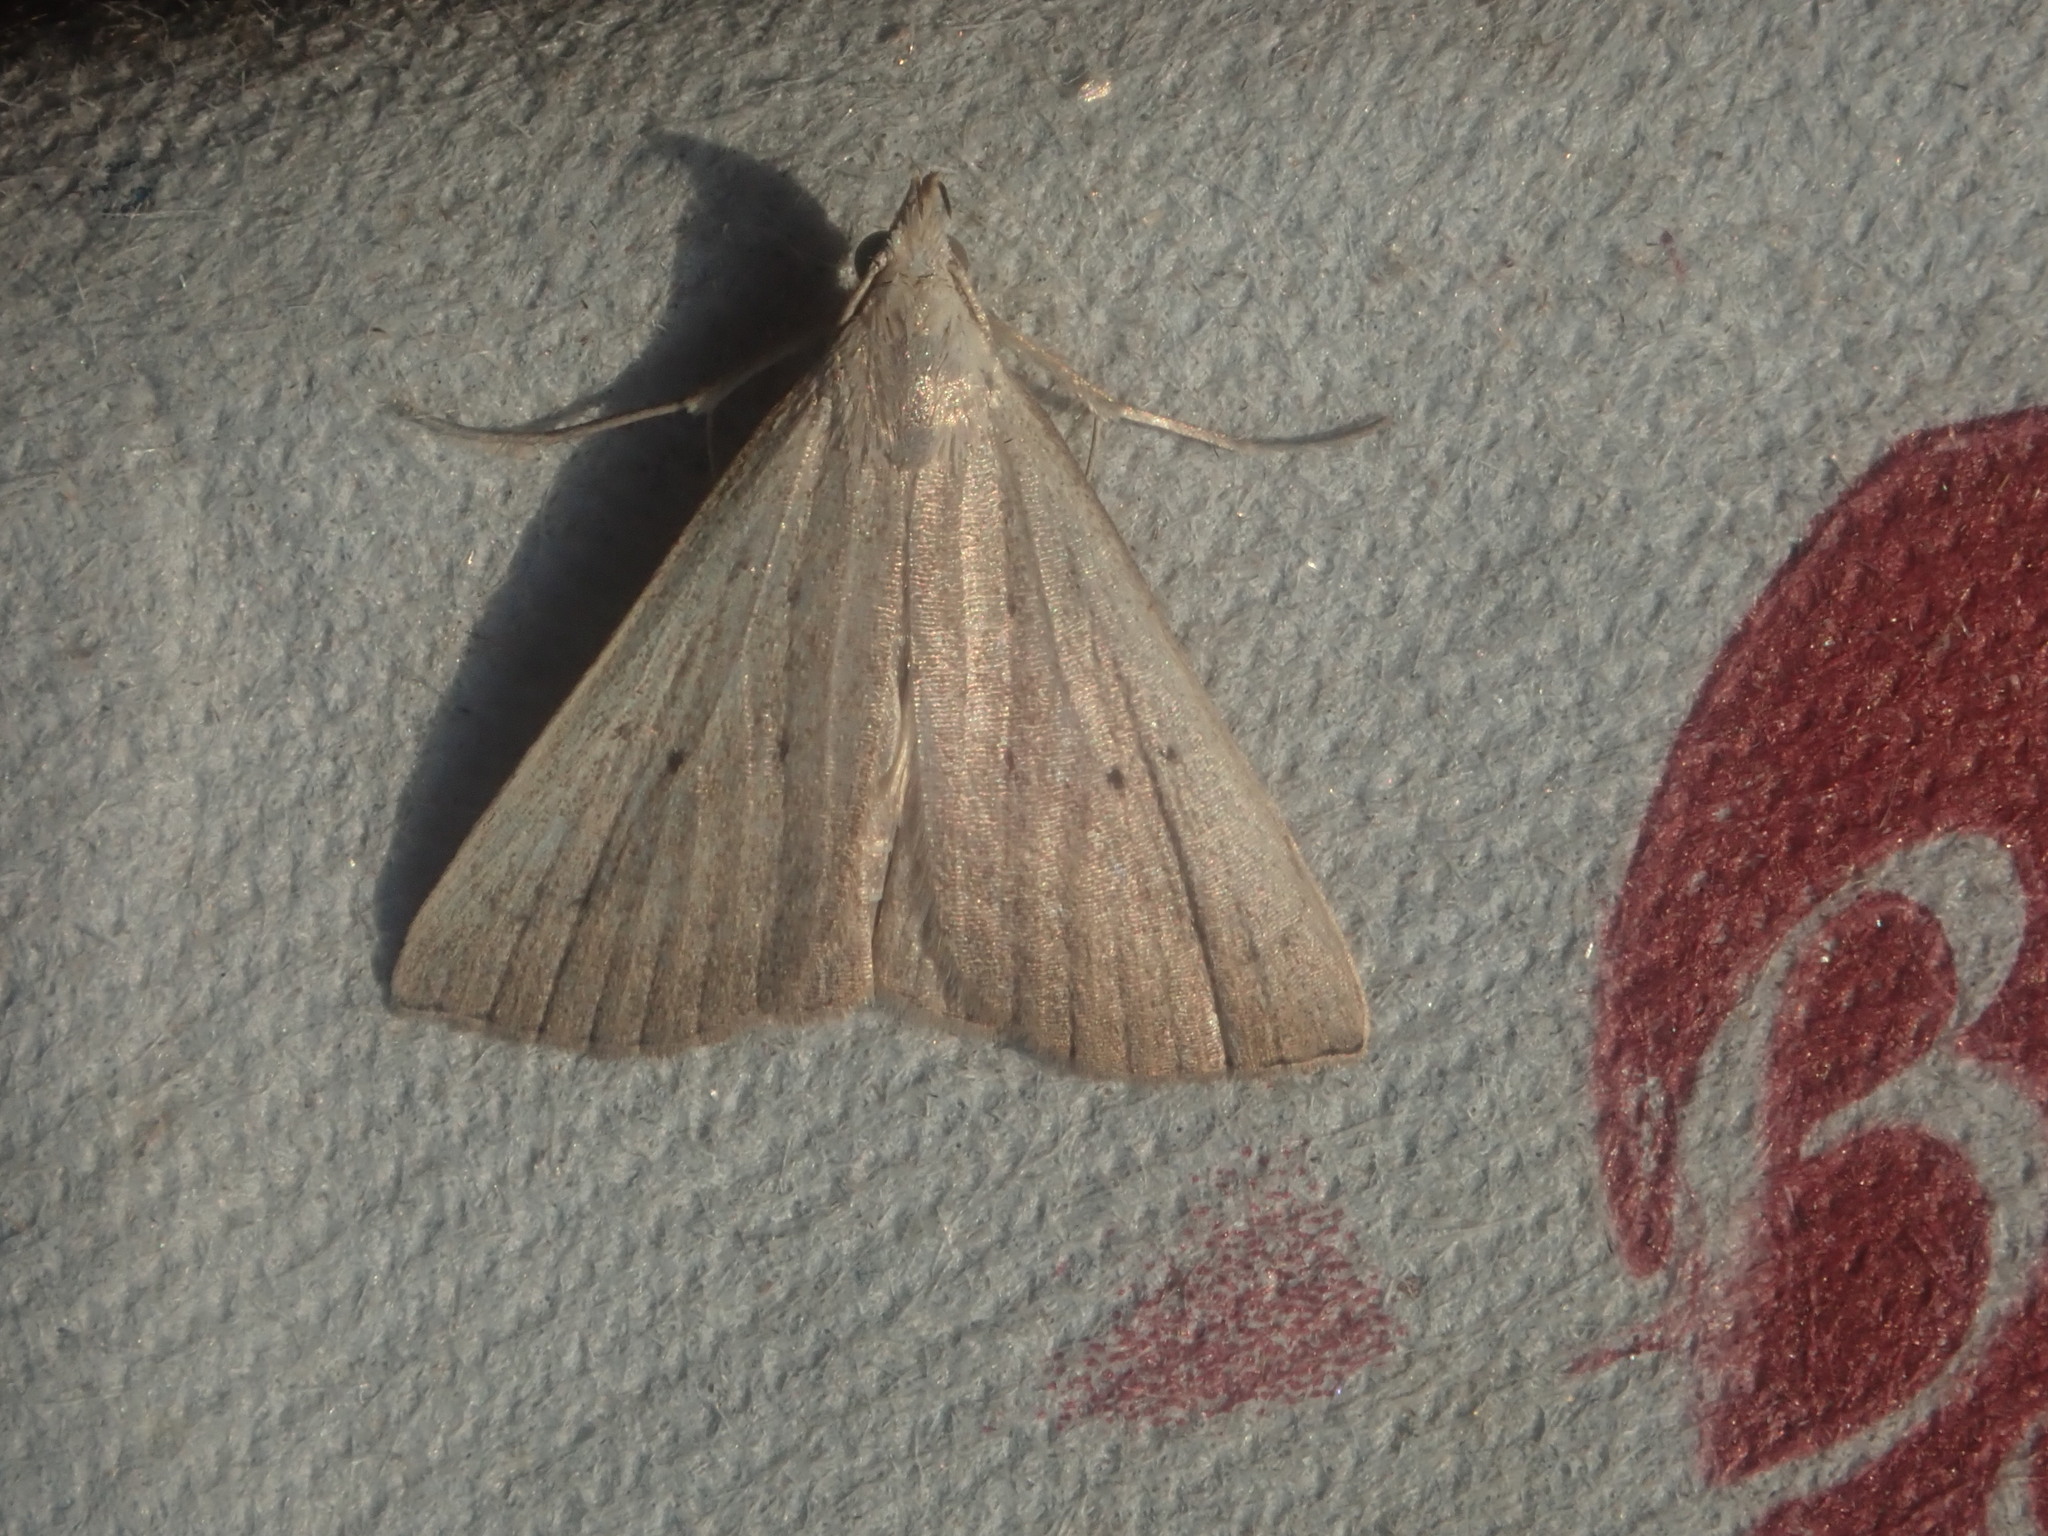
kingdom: Animalia
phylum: Arthropoda
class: Insecta
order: Lepidoptera
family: Erebidae
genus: Macrochilo
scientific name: Macrochilo louisiana
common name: Louisiana macrochilo
